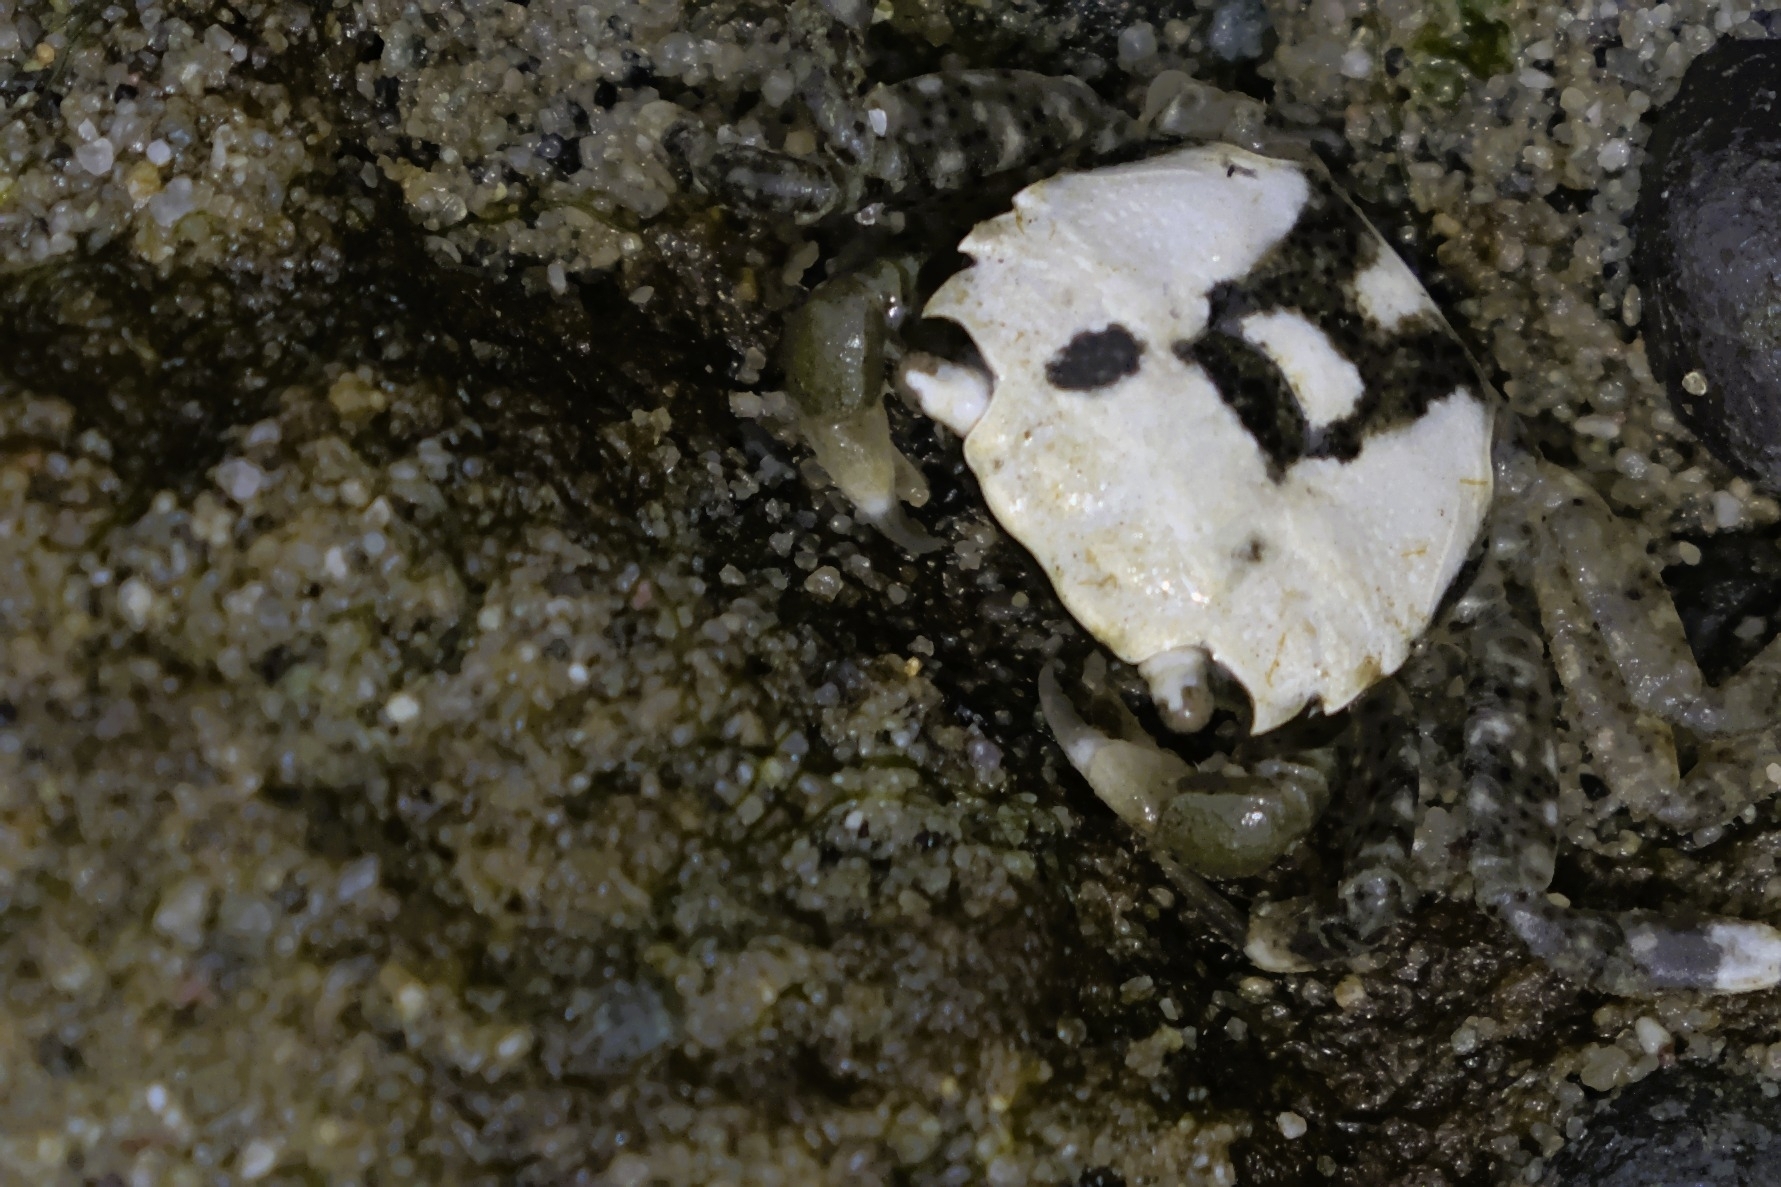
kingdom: Animalia
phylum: Arthropoda
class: Malacostraca
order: Decapoda
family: Varunidae
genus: Hemigrapsus
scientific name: Hemigrapsus oregonensis
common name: Yellow shore crab
